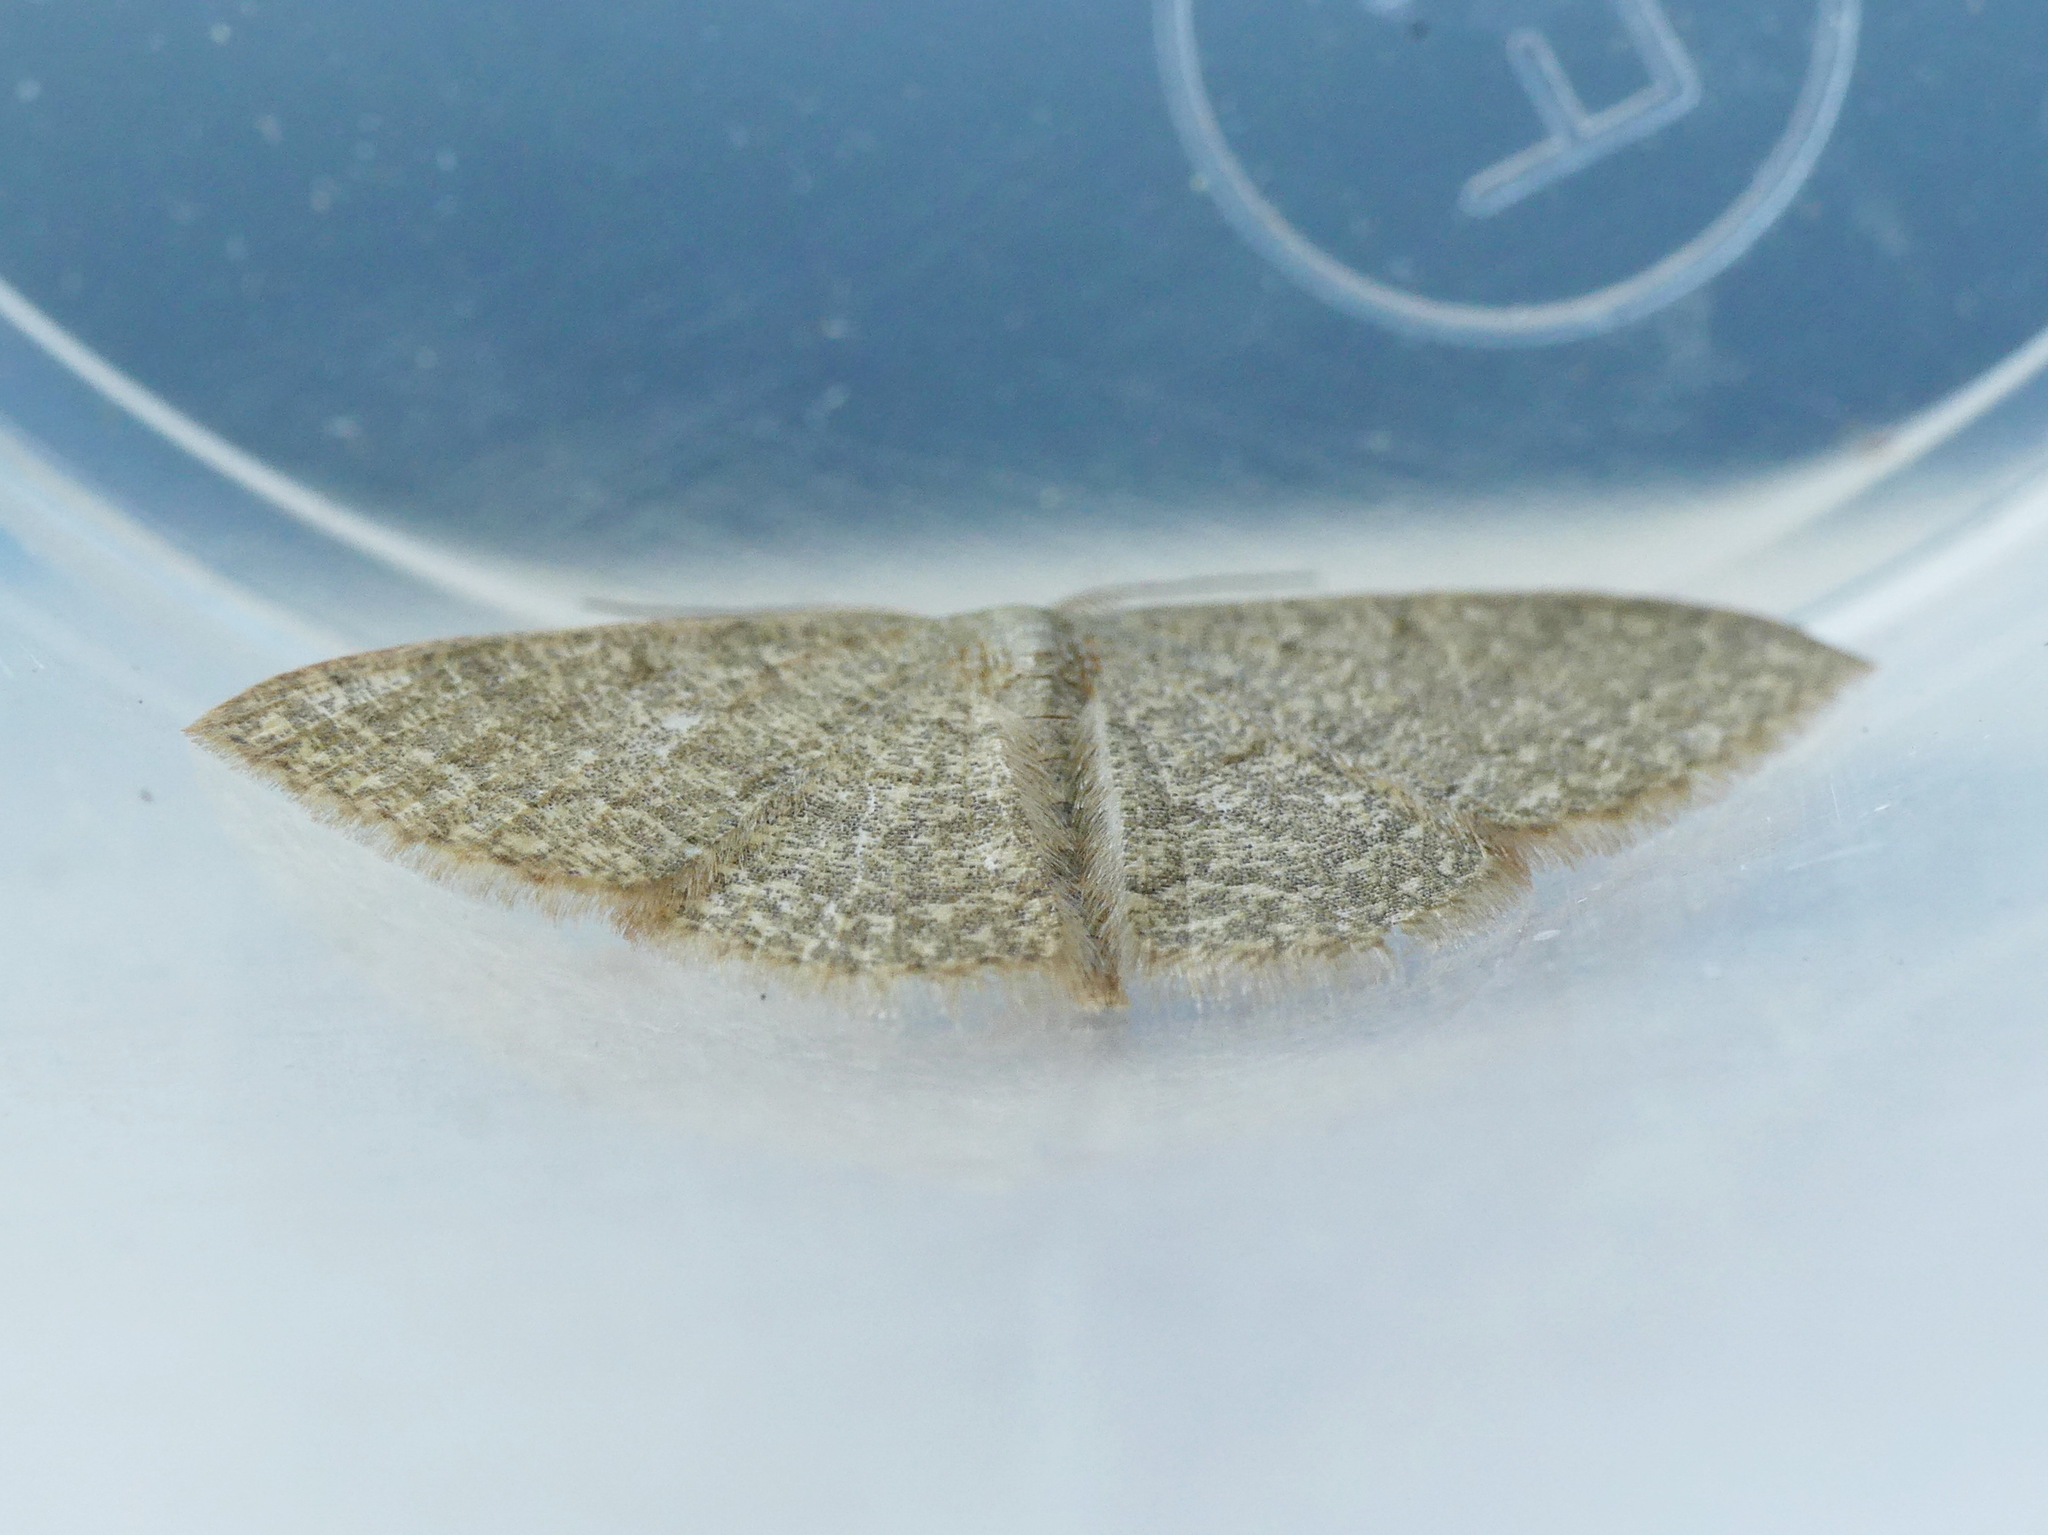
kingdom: Animalia
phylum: Arthropoda
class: Insecta
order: Lepidoptera
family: Geometridae
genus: Pleuroprucha
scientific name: Pleuroprucha insulsaria
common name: Common tan wave
